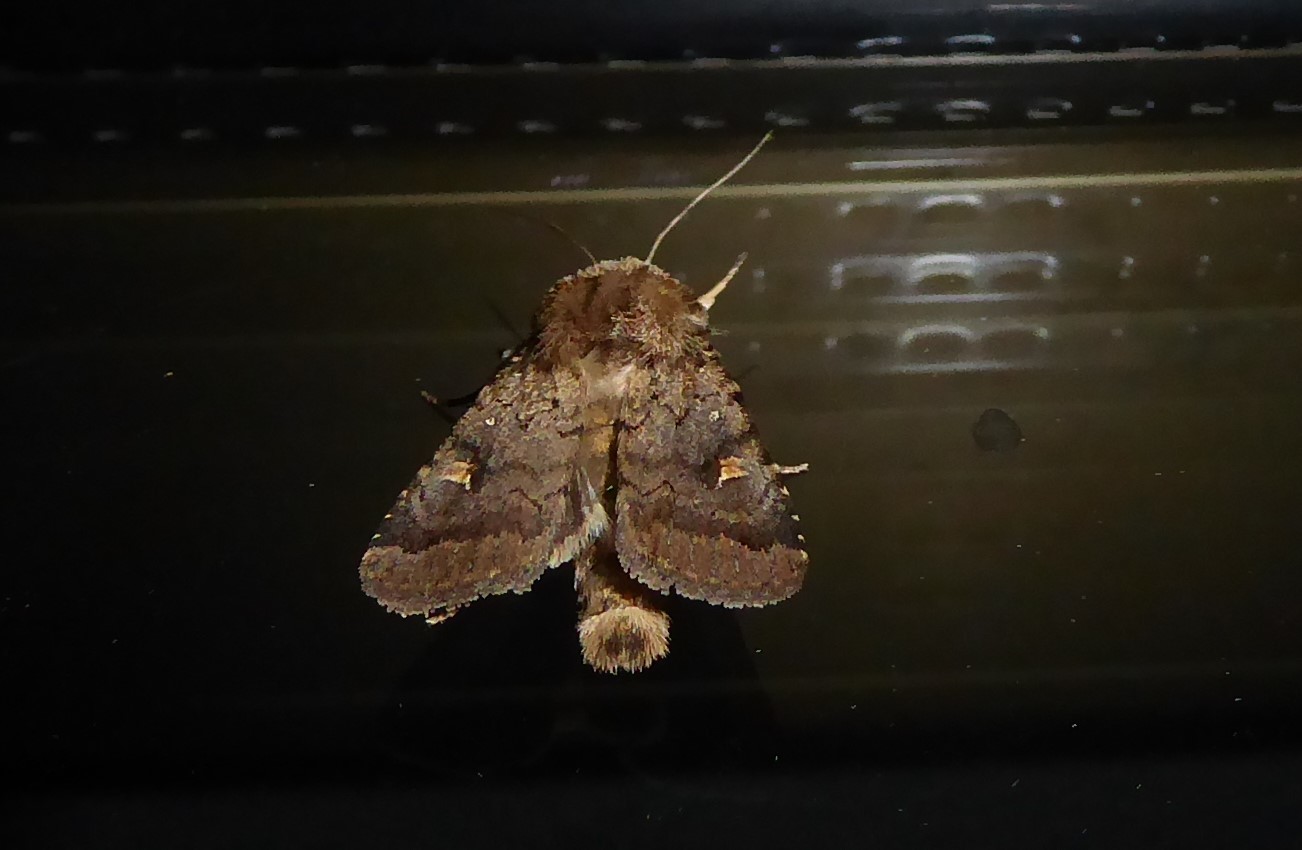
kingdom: Animalia
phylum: Arthropoda
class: Insecta
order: Lepidoptera
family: Noctuidae
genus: Proteuxoa
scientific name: Proteuxoa tetronycha
